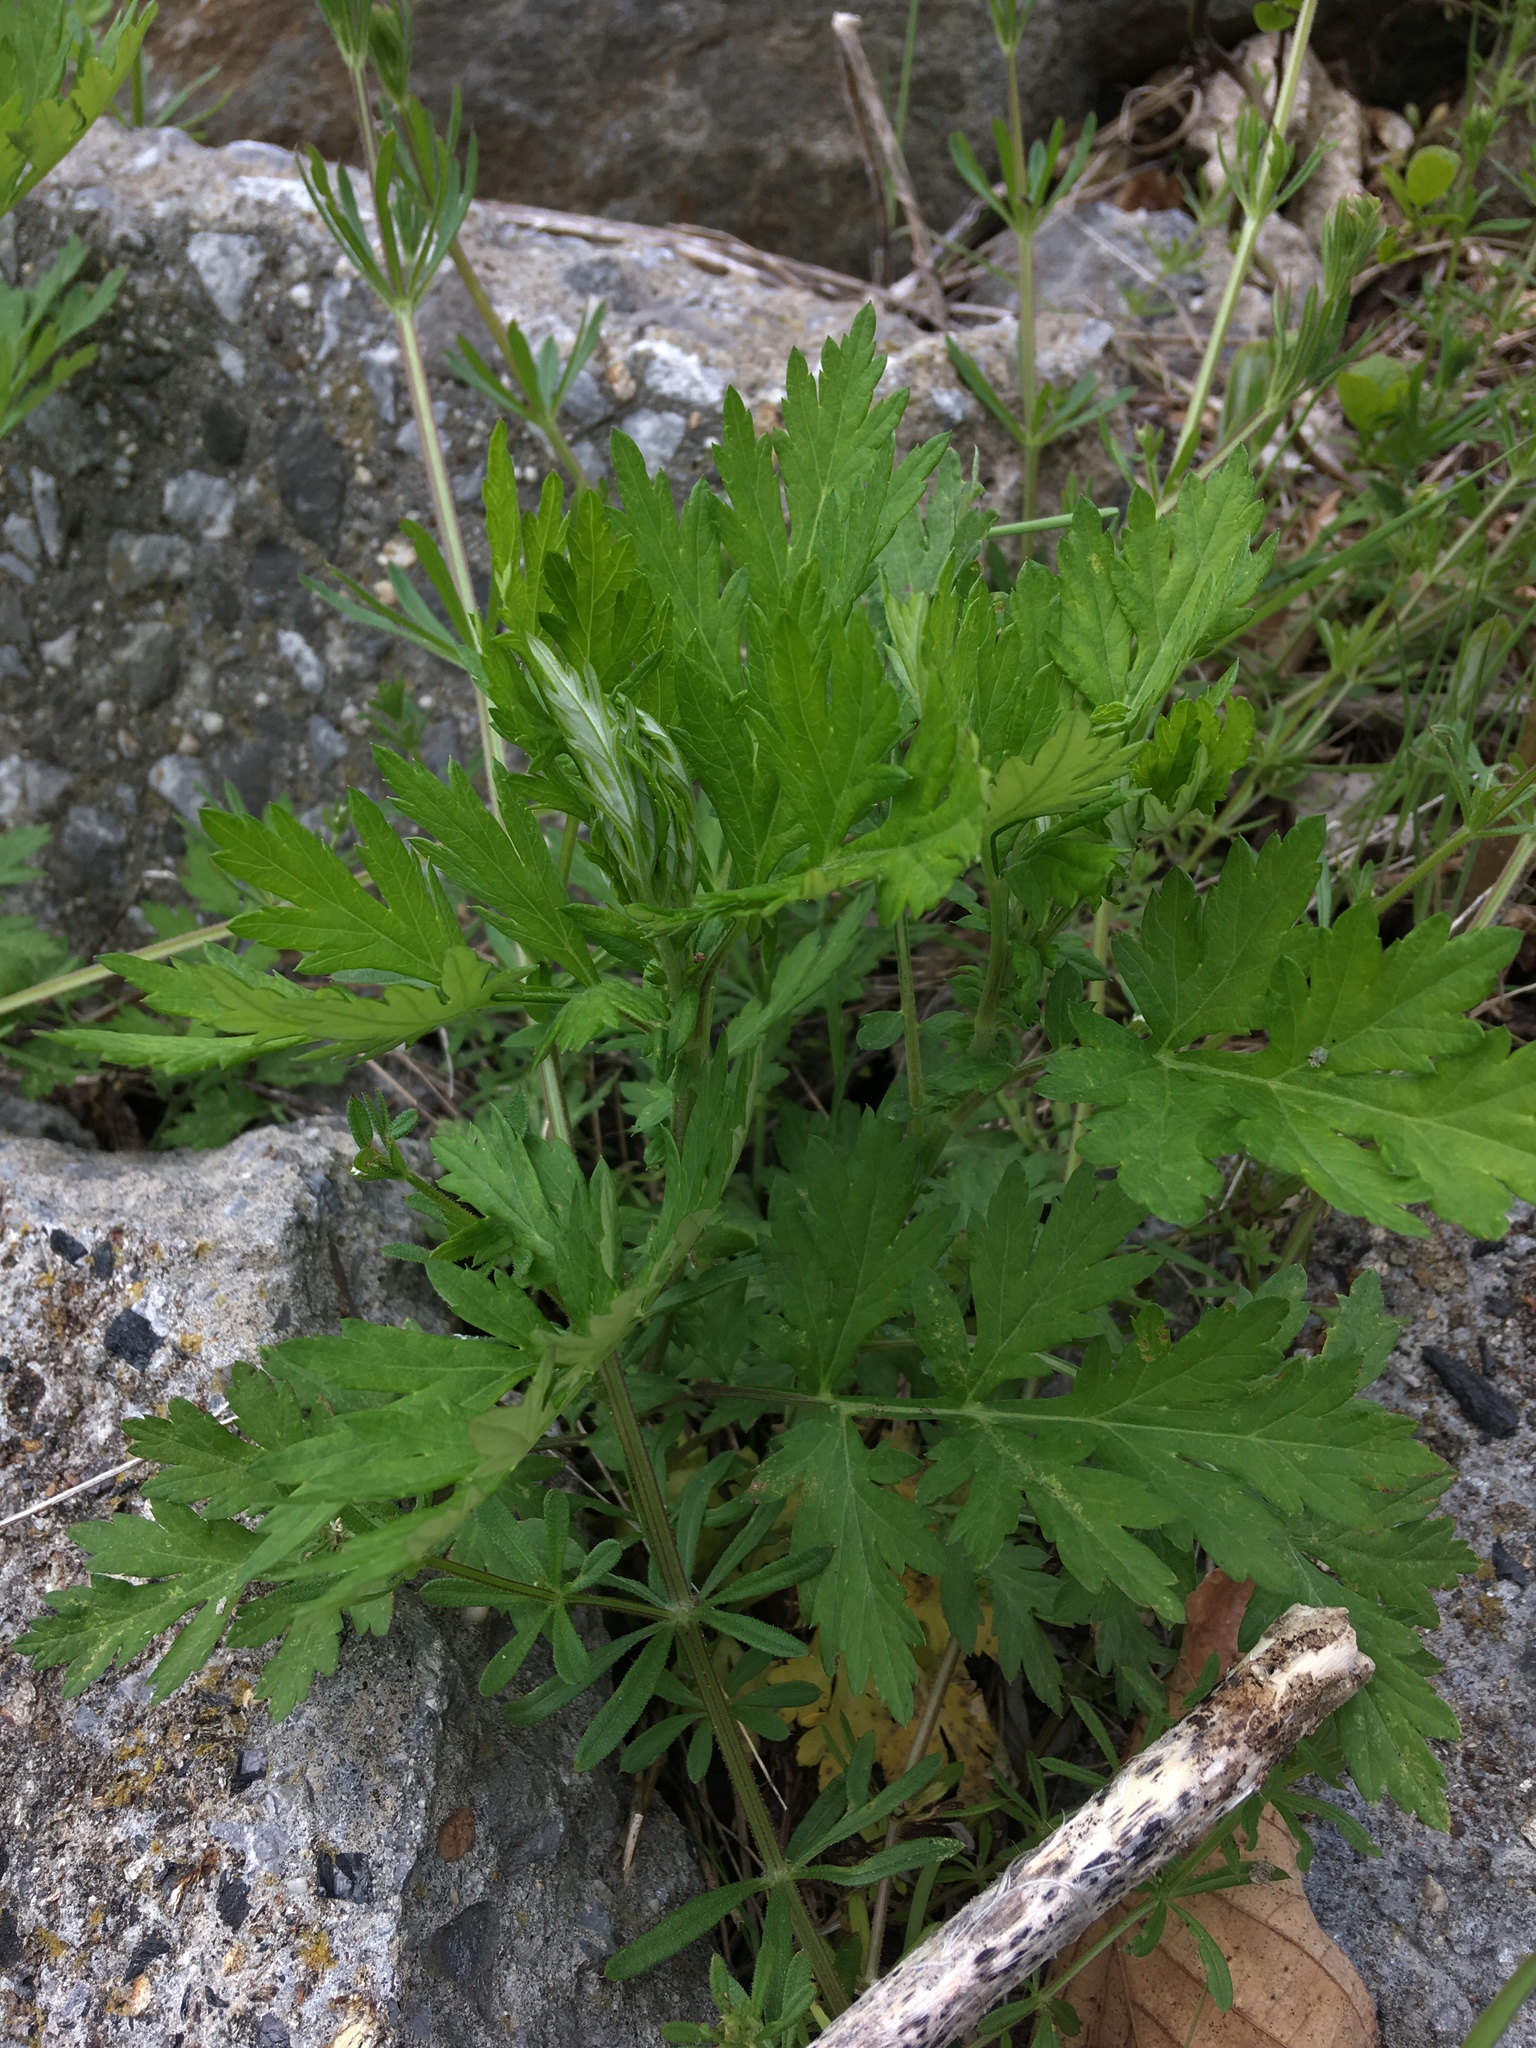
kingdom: Plantae
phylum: Tracheophyta
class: Magnoliopsida
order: Asterales
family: Asteraceae
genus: Artemisia
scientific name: Artemisia vulgaris
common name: Mugwort
